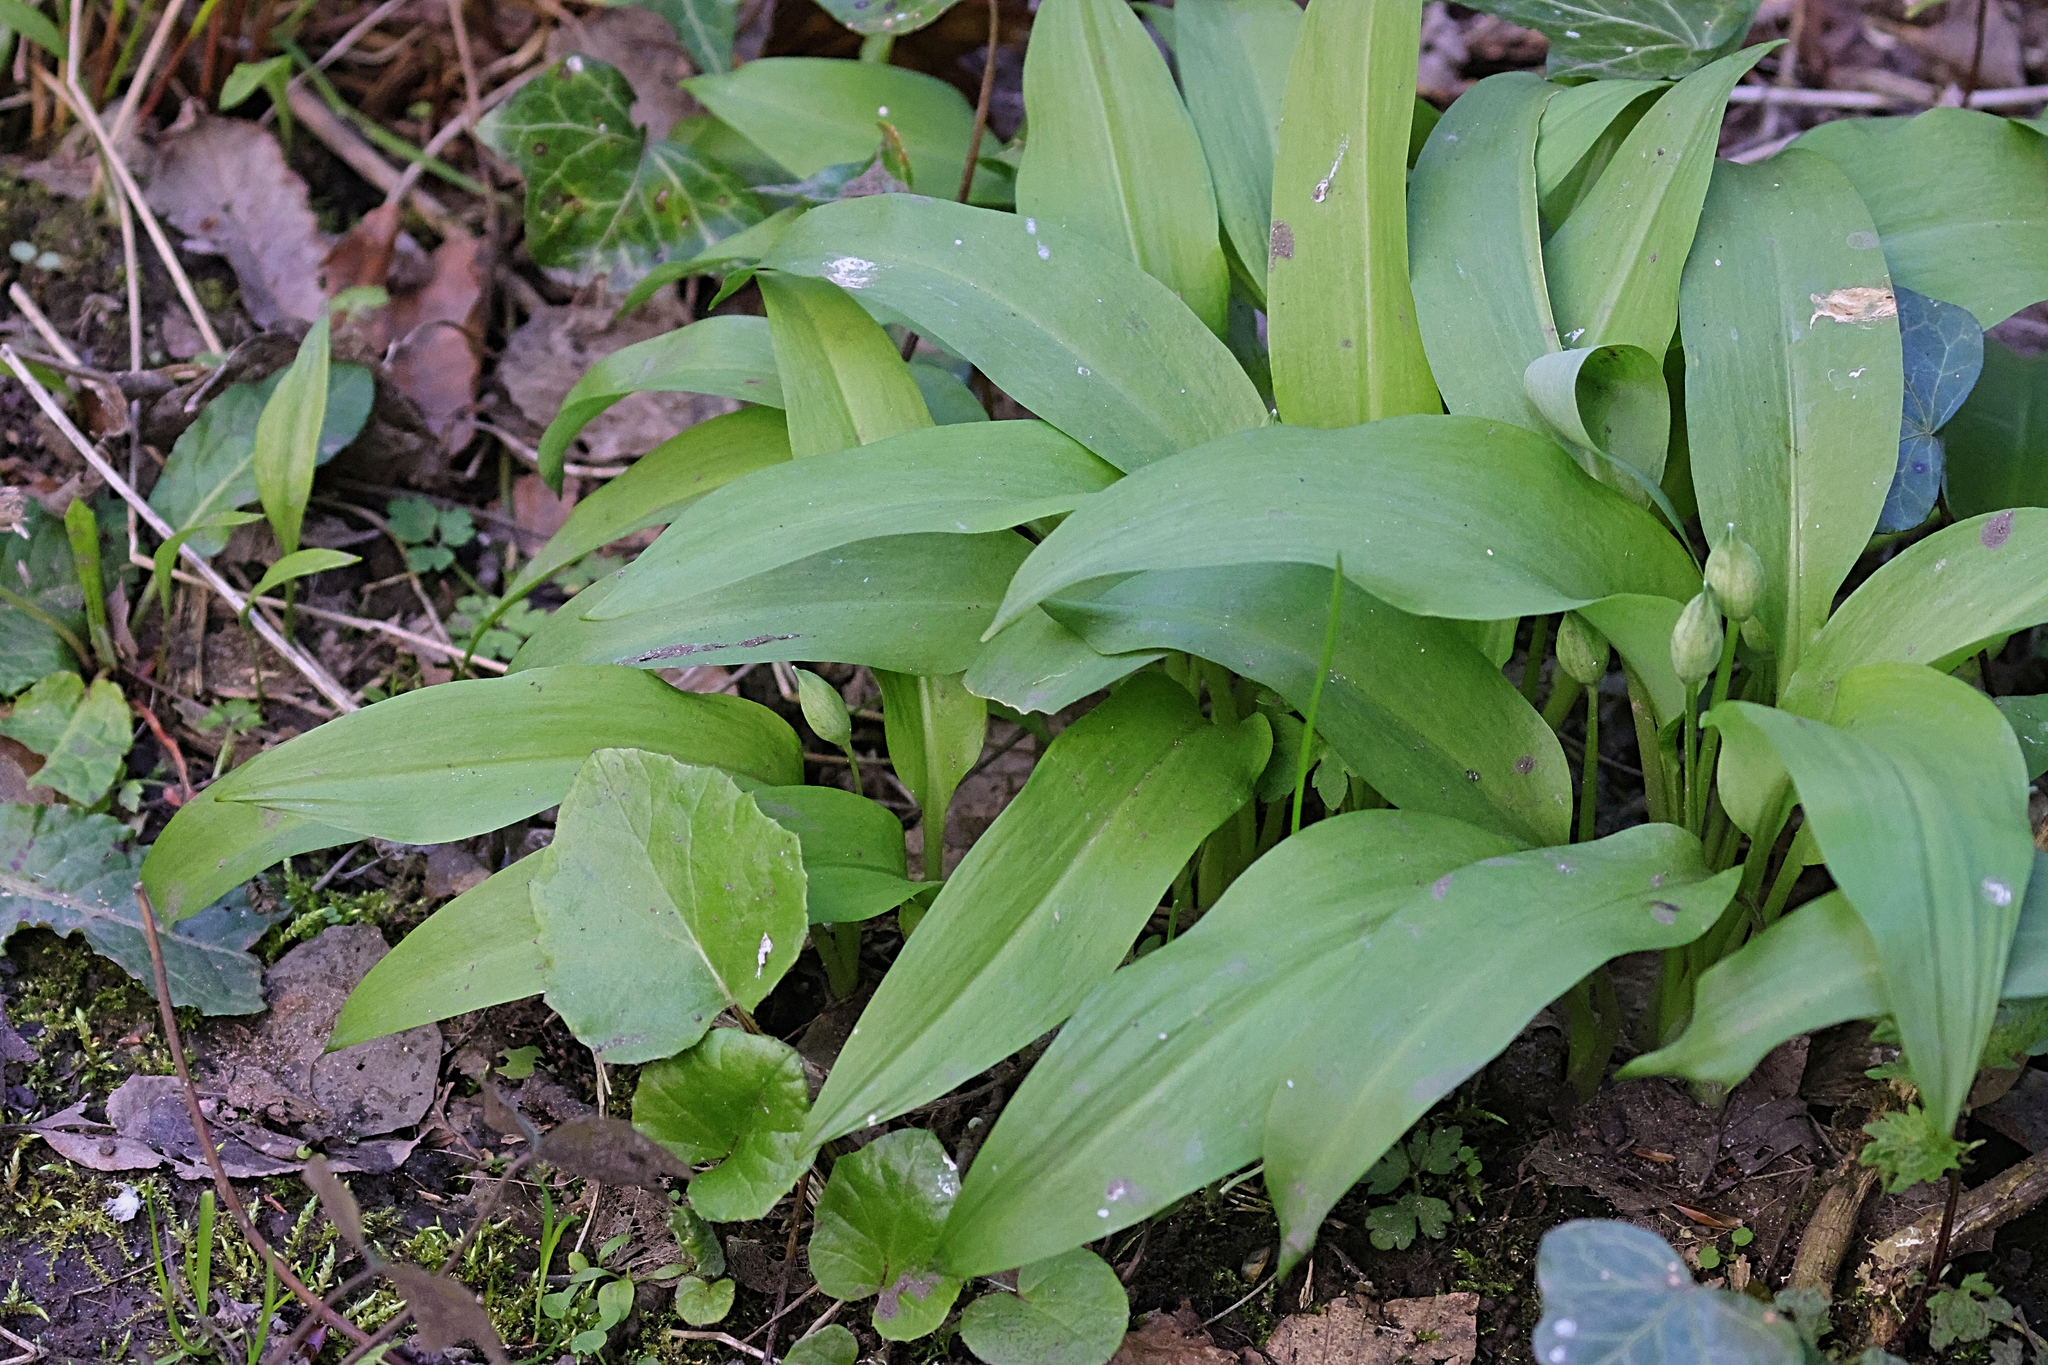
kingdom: Plantae
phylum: Tracheophyta
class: Liliopsida
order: Asparagales
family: Amaryllidaceae
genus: Allium
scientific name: Allium ursinum
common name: Ramsons
